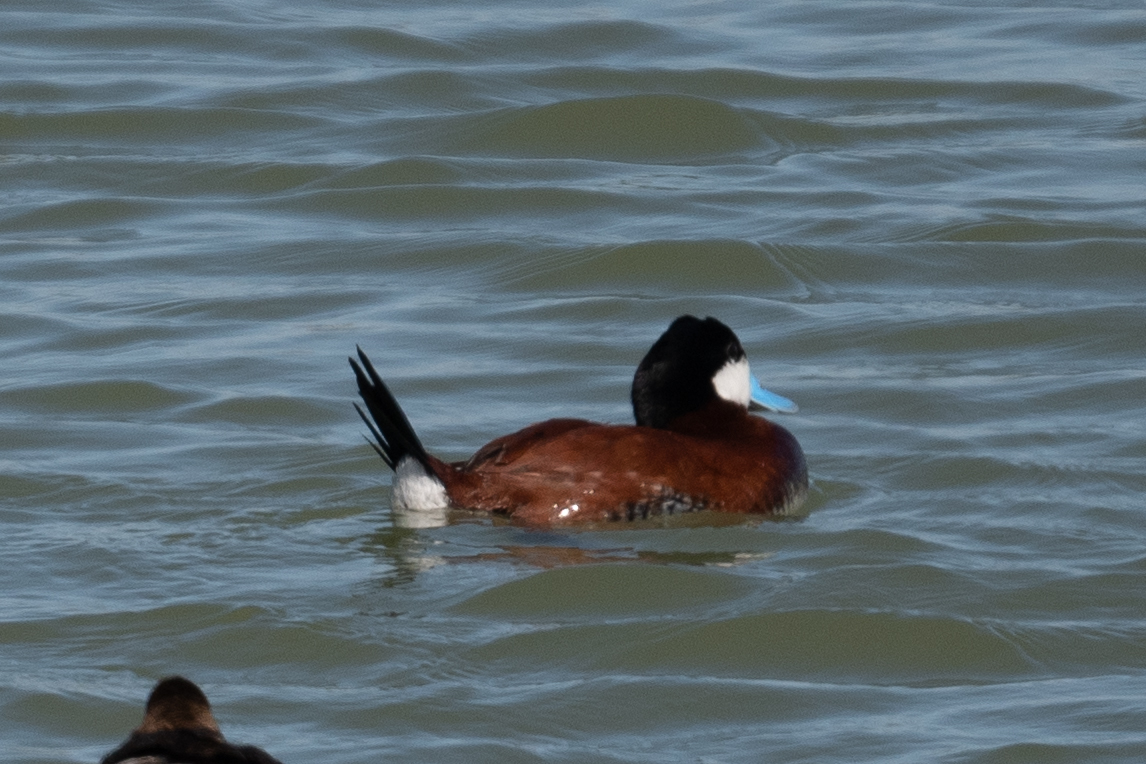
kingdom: Animalia
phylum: Chordata
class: Aves
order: Anseriformes
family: Anatidae
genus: Oxyura
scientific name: Oxyura jamaicensis
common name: Ruddy duck
